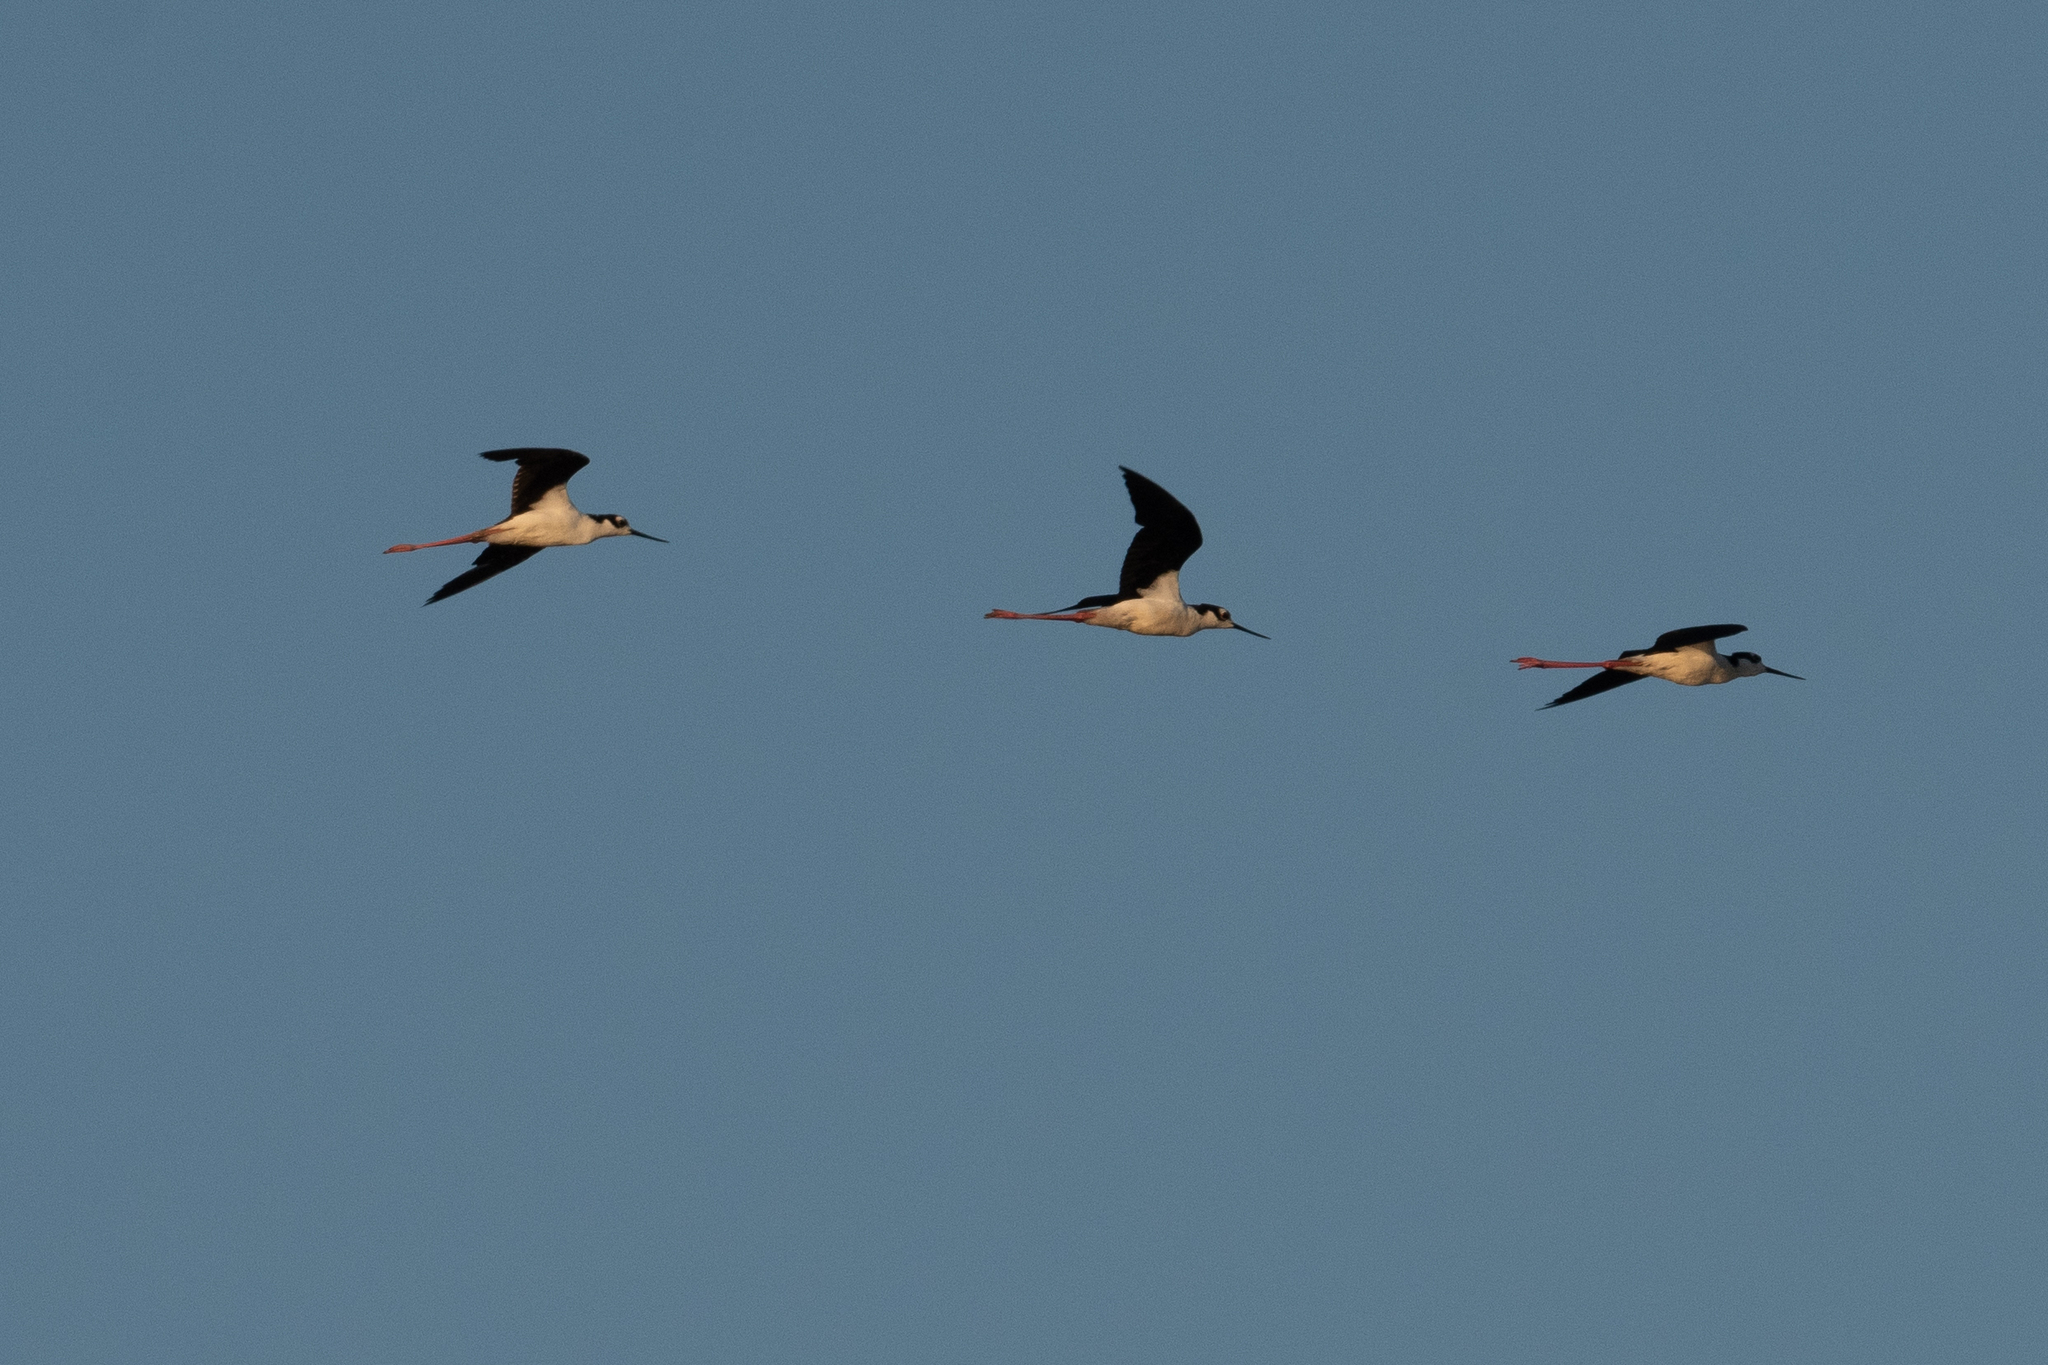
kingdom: Animalia
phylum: Chordata
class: Aves
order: Charadriiformes
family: Recurvirostridae
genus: Himantopus
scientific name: Himantopus mexicanus
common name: Black-necked stilt
